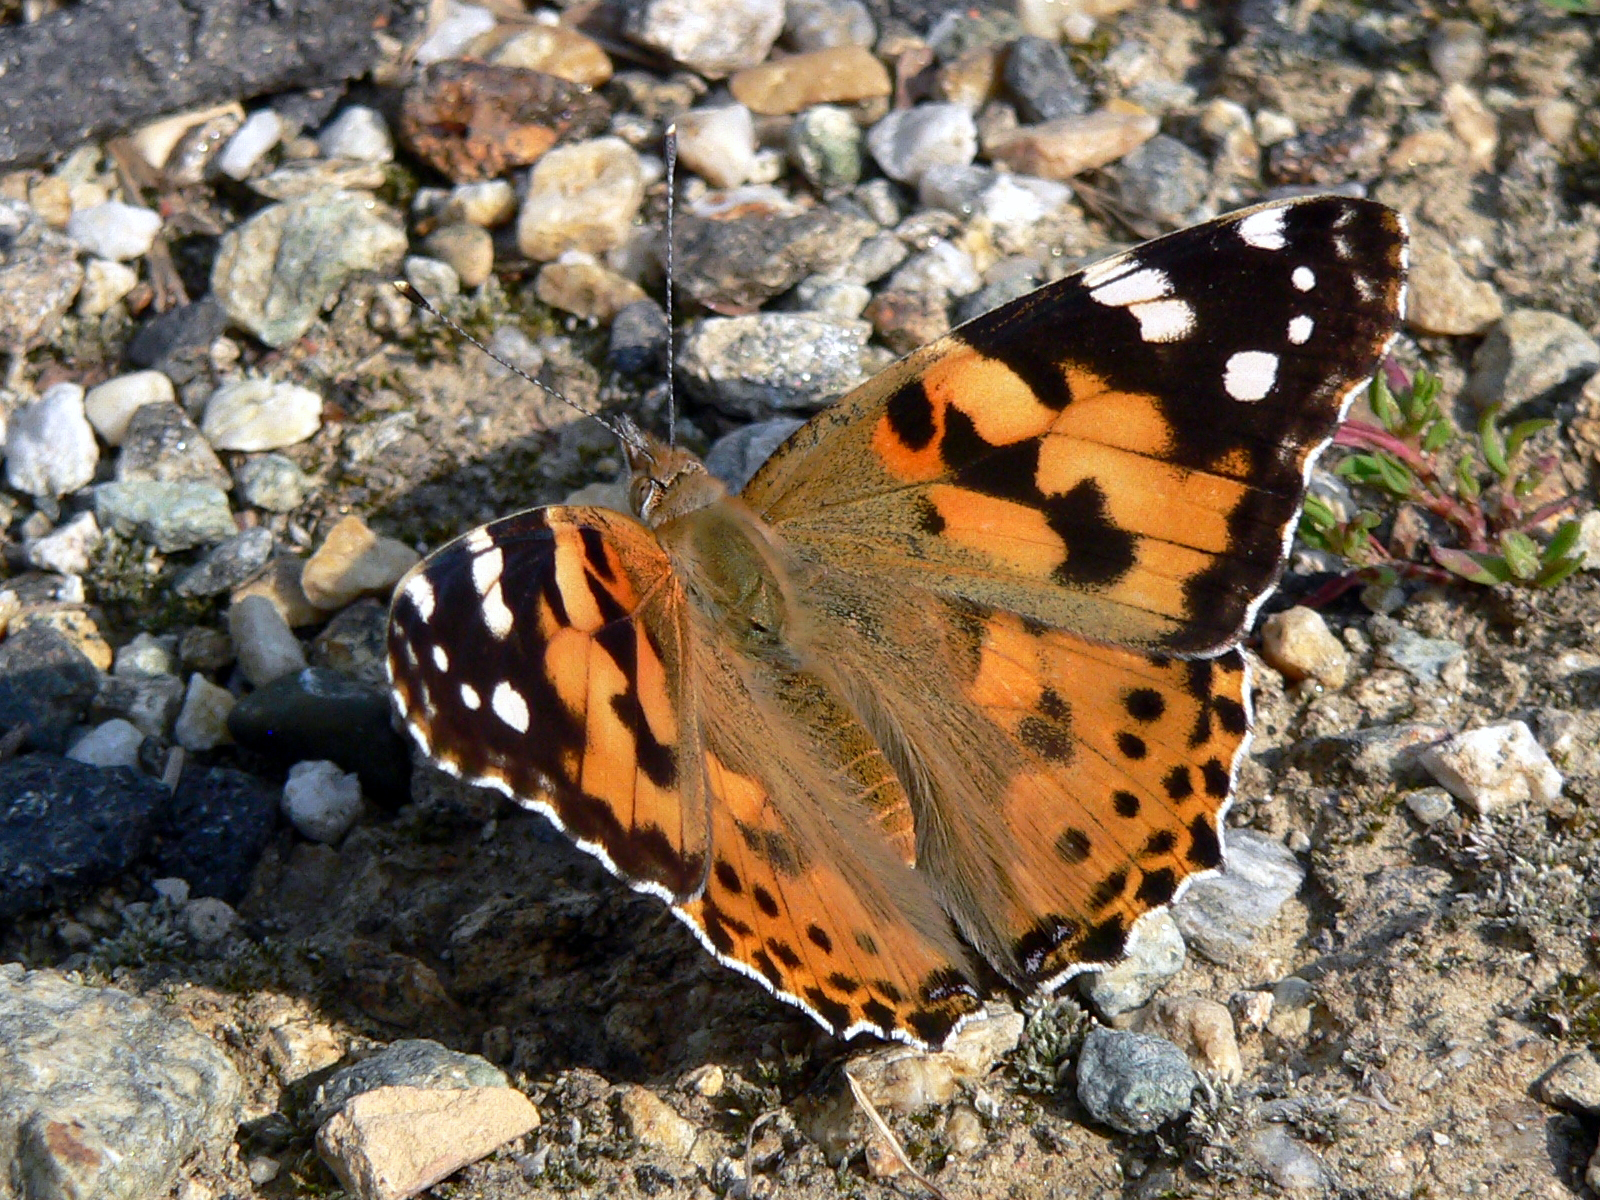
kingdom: Animalia
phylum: Arthropoda
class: Insecta
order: Lepidoptera
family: Nymphalidae
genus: Vanessa
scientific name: Vanessa cardui
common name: Painted lady
